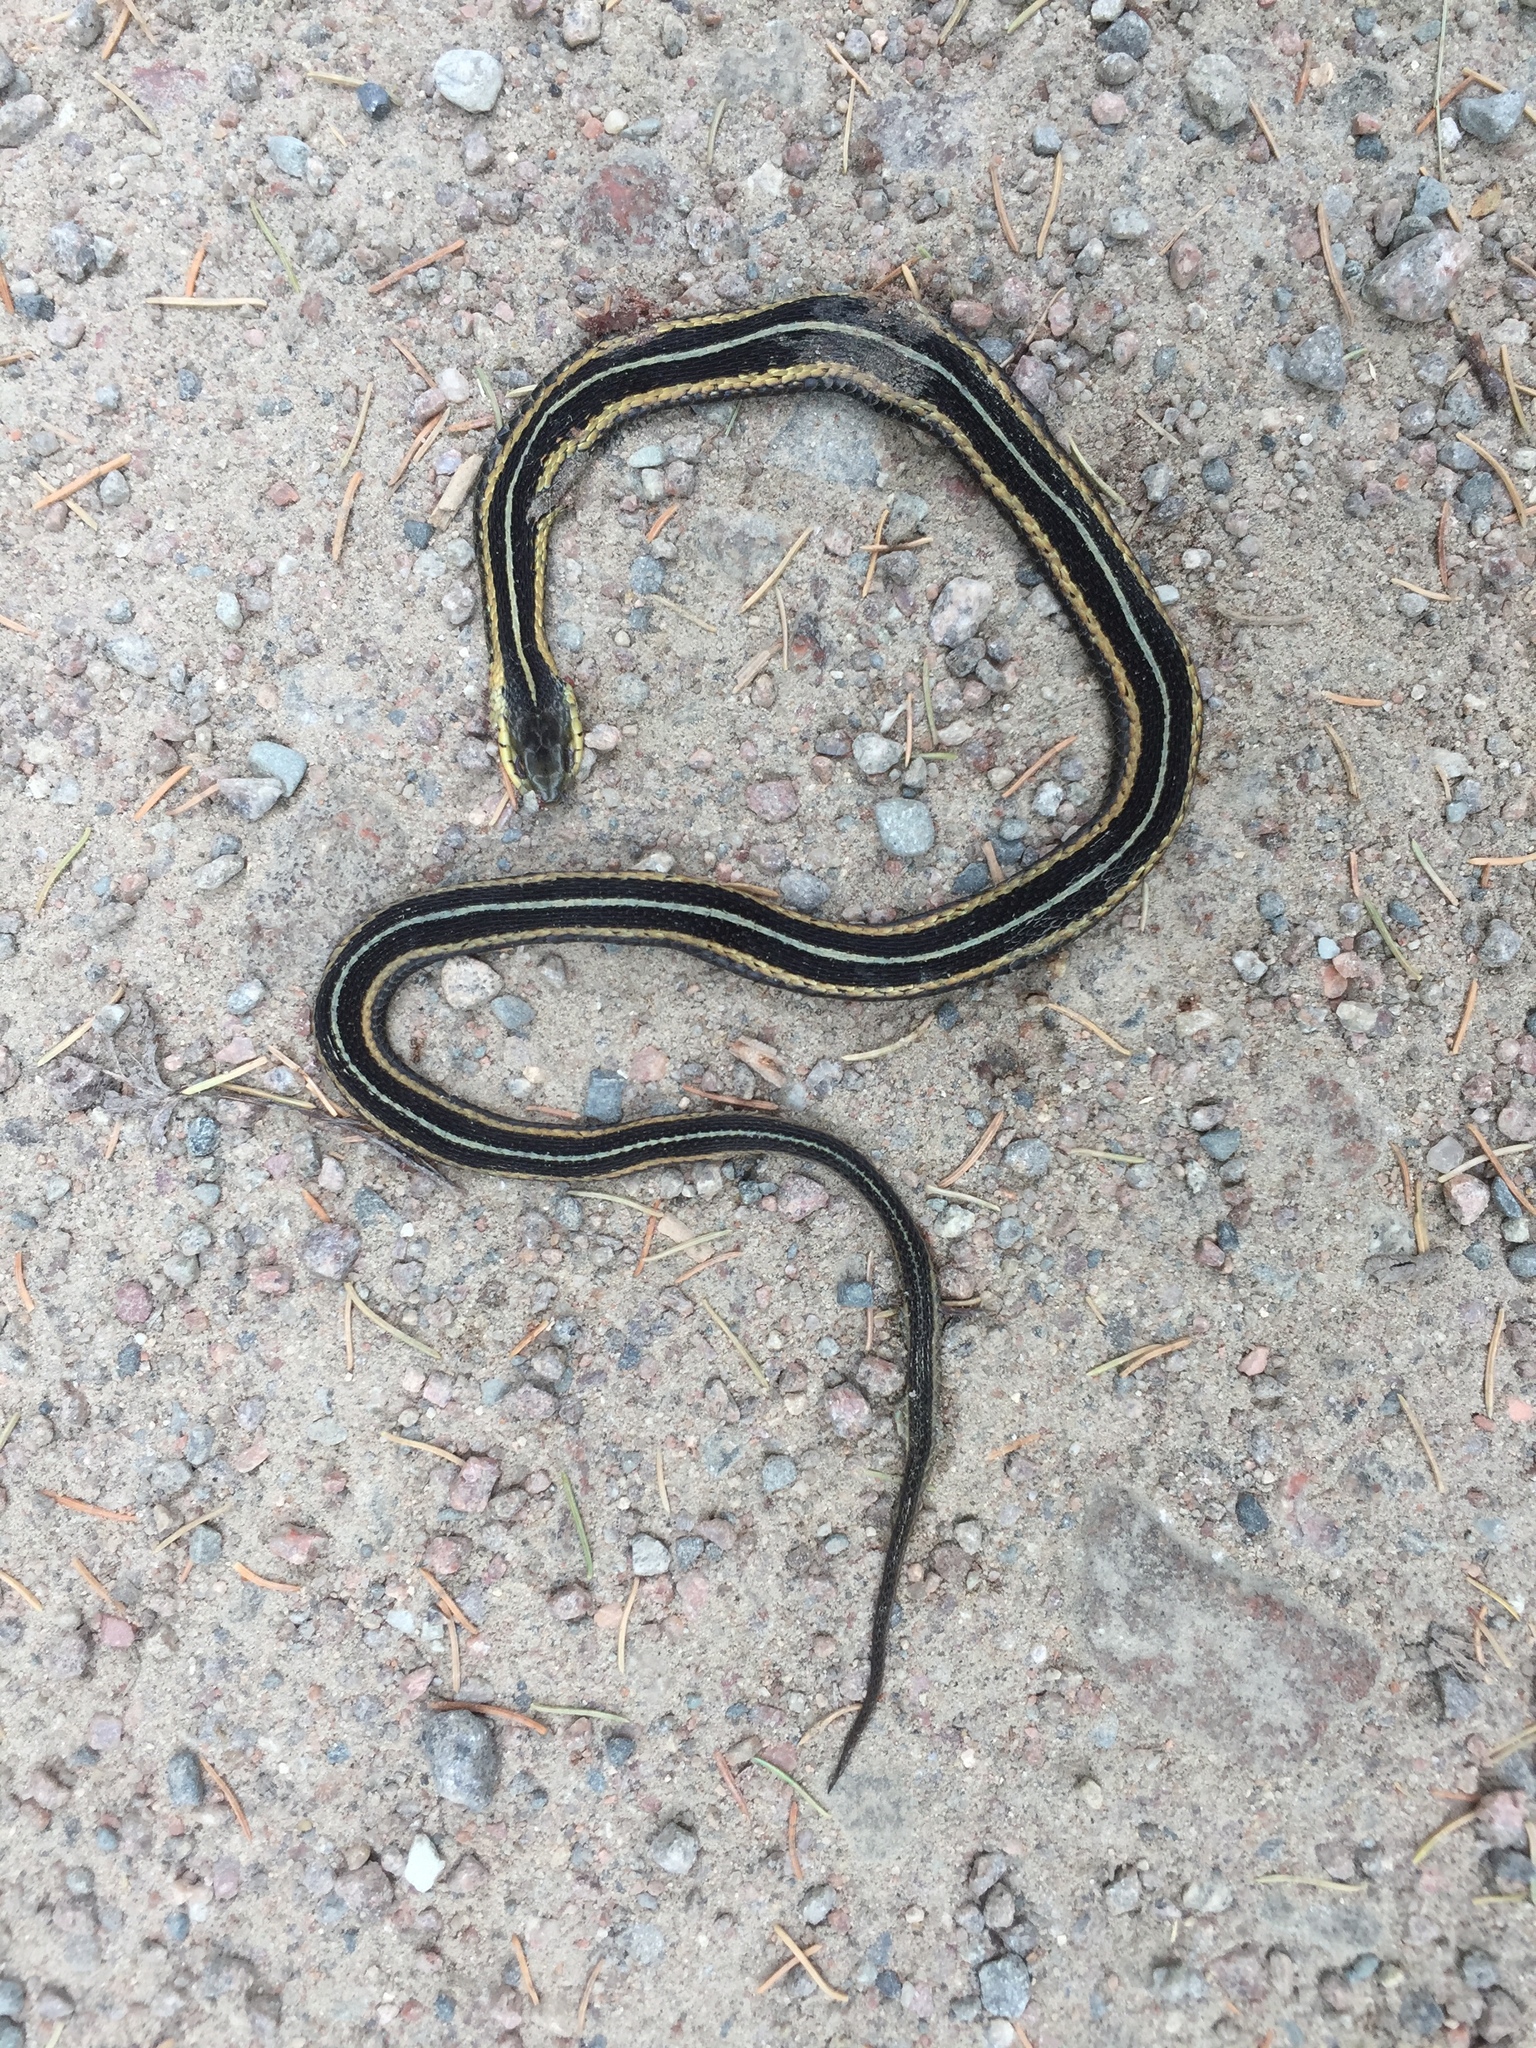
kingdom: Animalia
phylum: Chordata
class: Squamata
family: Colubridae
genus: Thamnophis
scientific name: Thamnophis sirtalis
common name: Common garter snake
